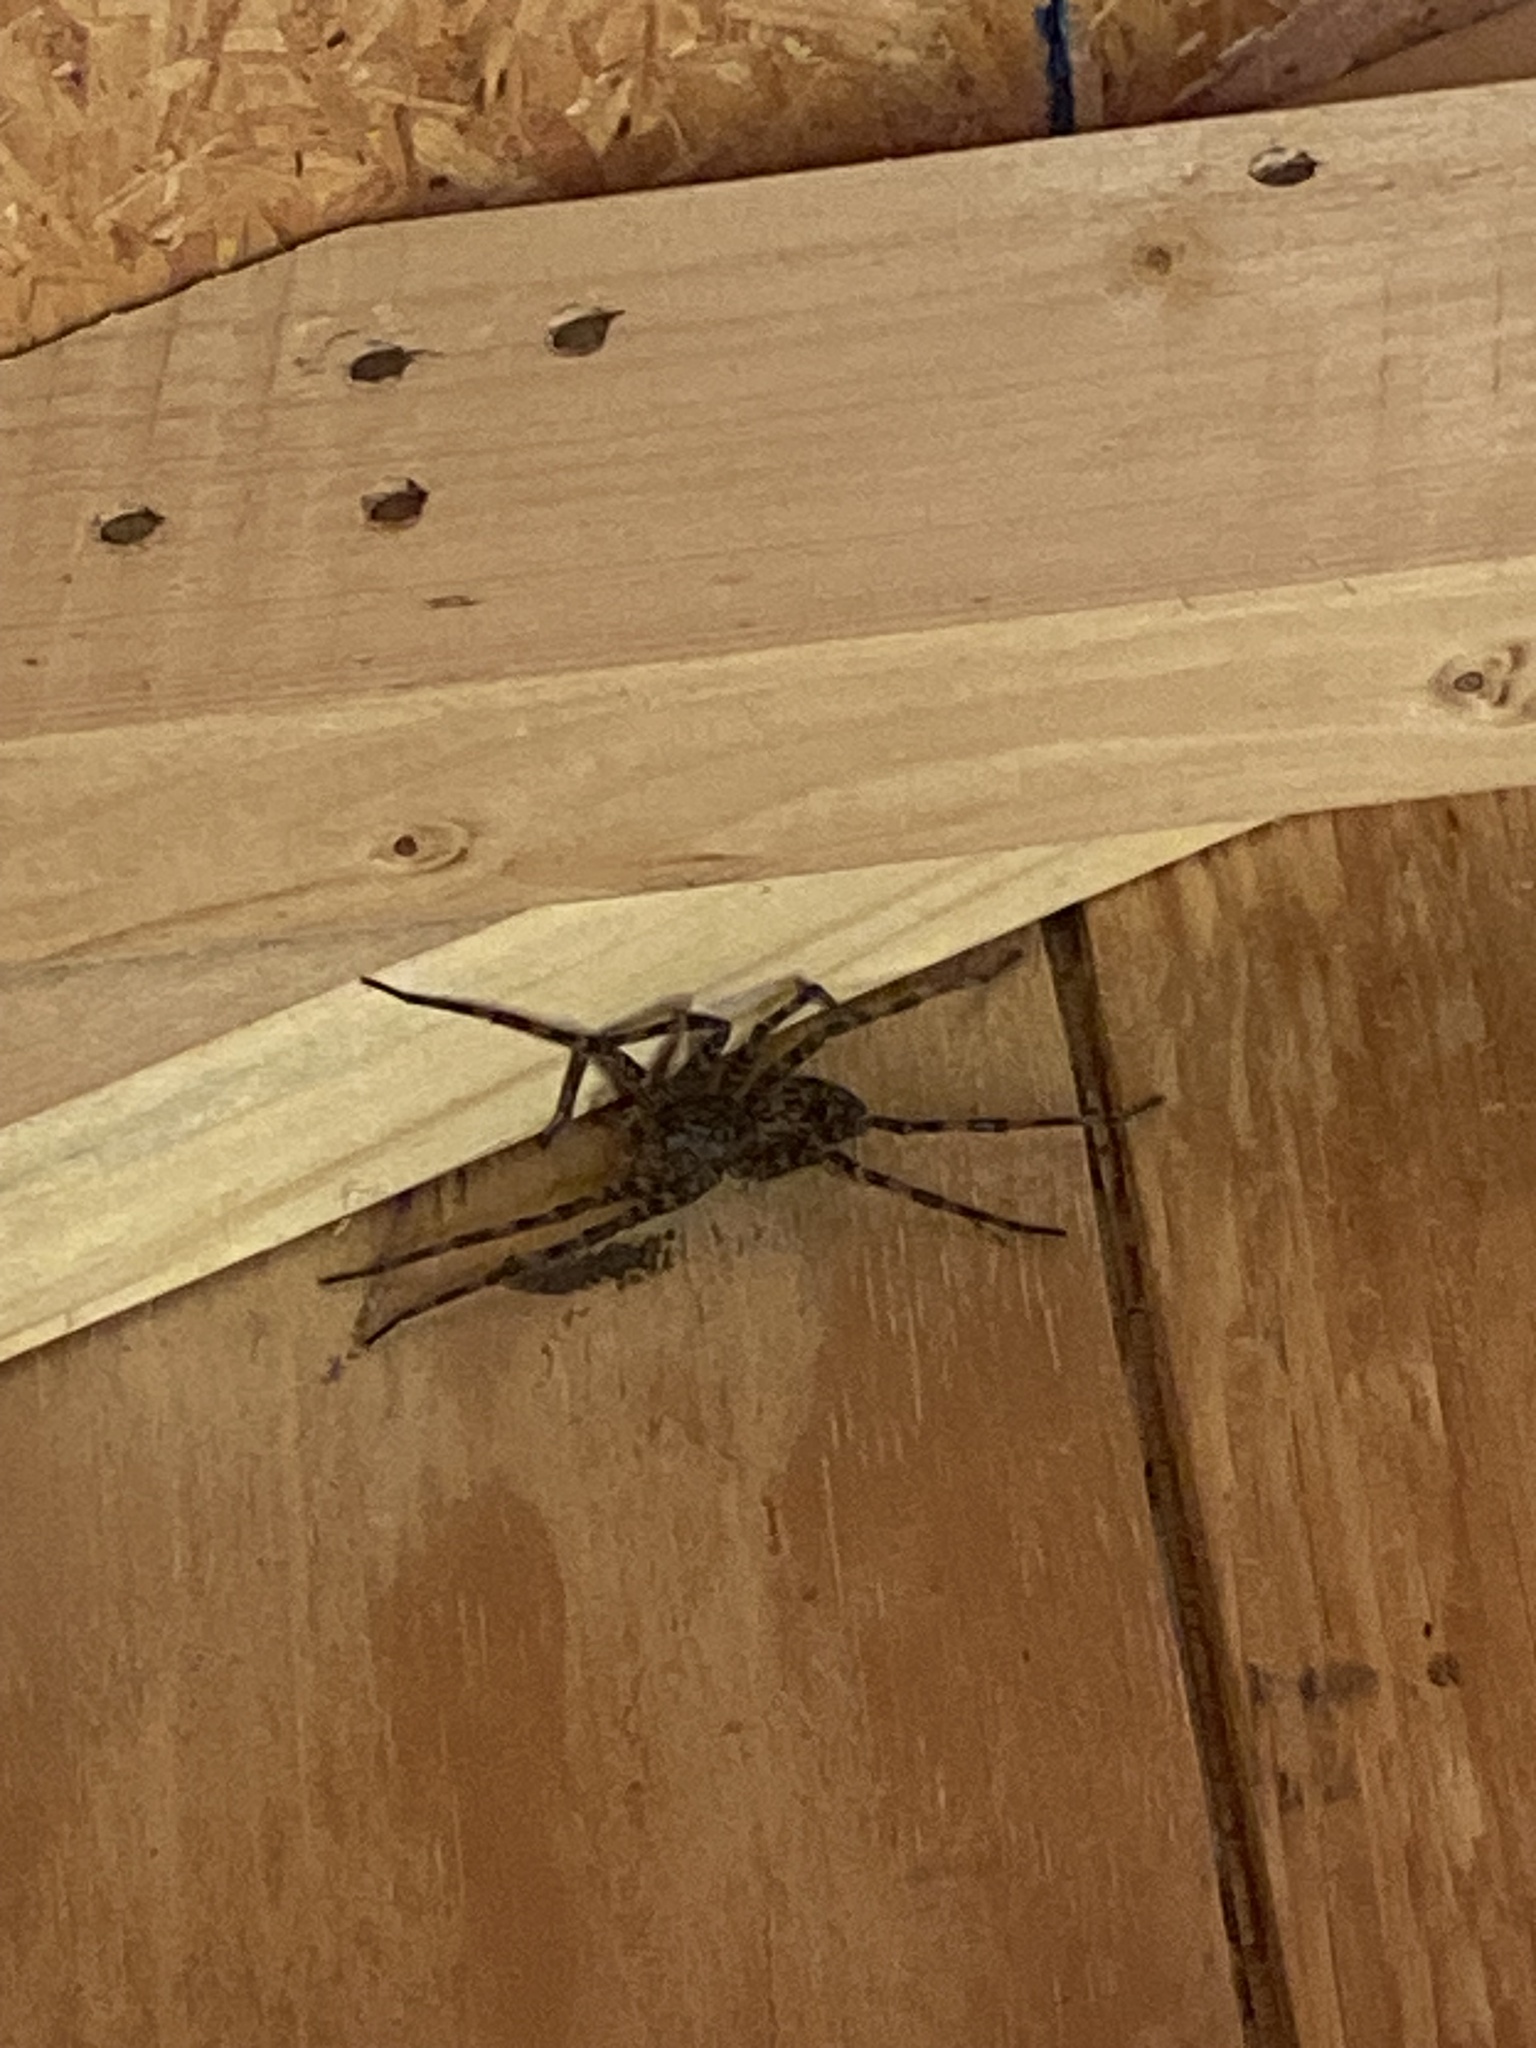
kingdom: Animalia
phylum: Arthropoda
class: Arachnida
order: Araneae
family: Pisauridae
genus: Dolomedes
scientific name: Dolomedes tenebrosus
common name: Dark fishing spider
